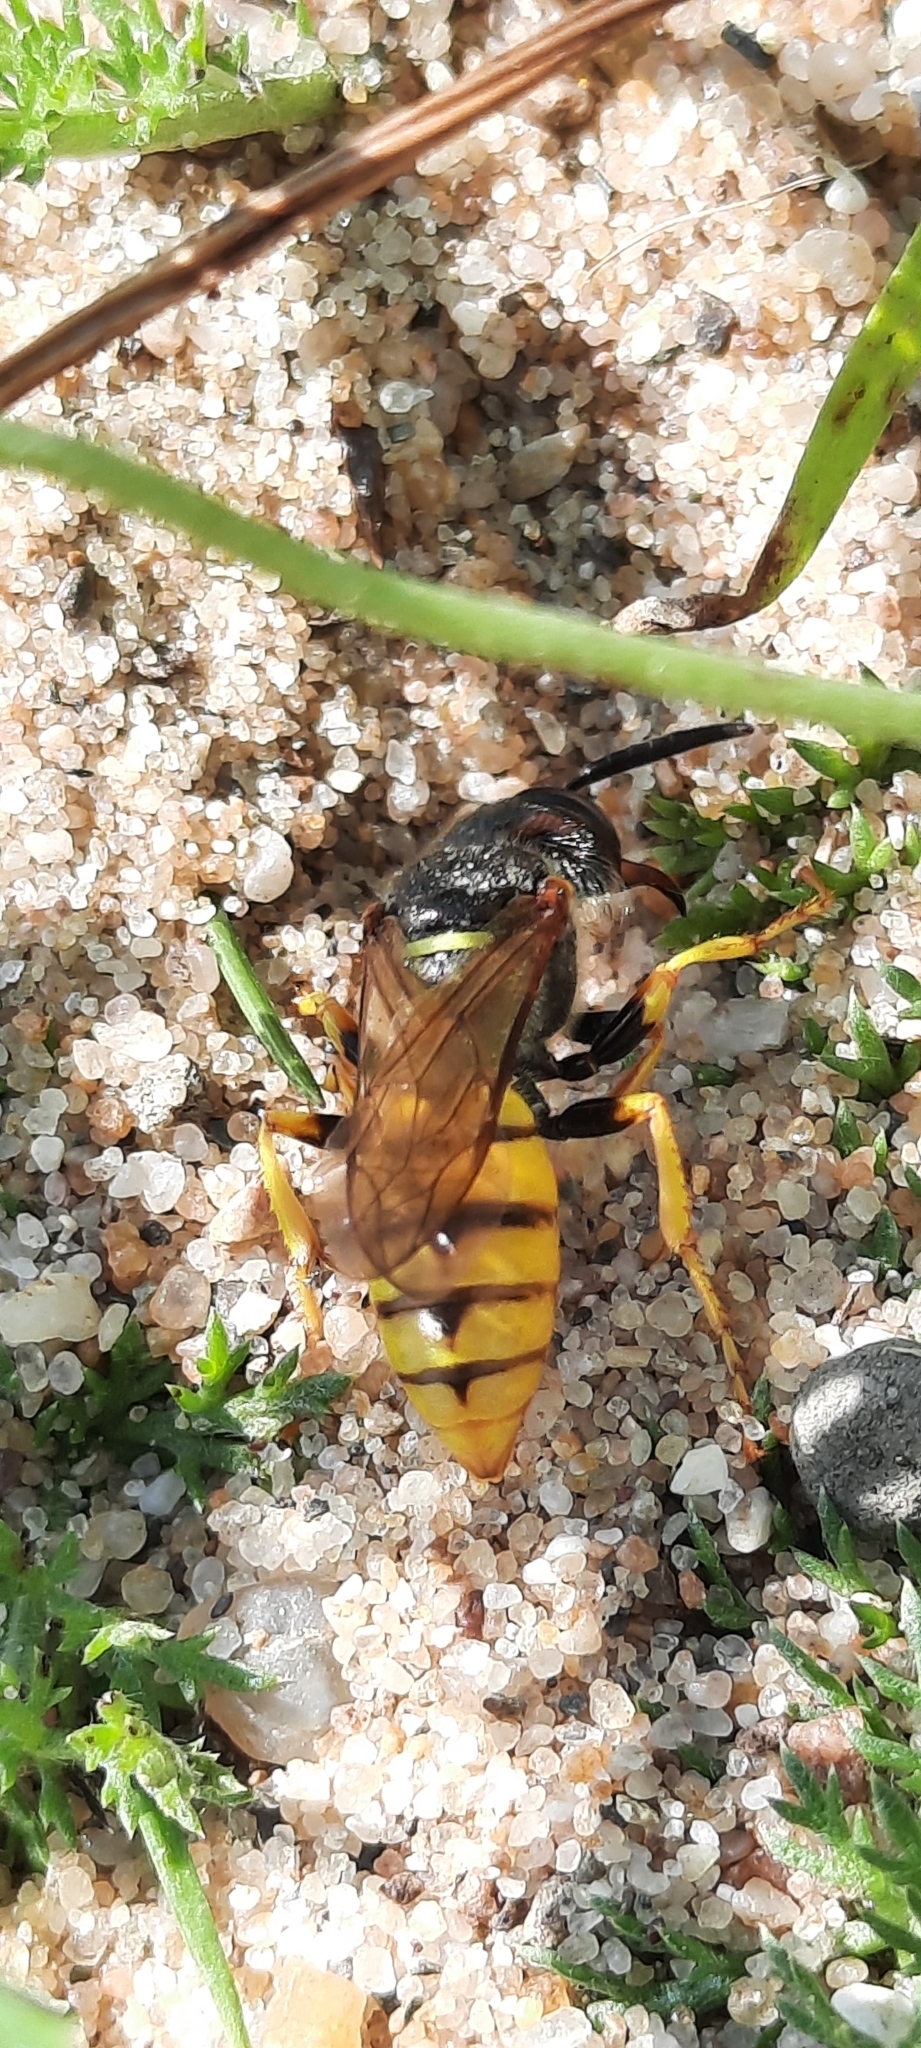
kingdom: Animalia
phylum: Arthropoda
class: Insecta
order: Hymenoptera
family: Crabronidae
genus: Philanthus
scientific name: Philanthus triangulum
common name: Bee wolf
